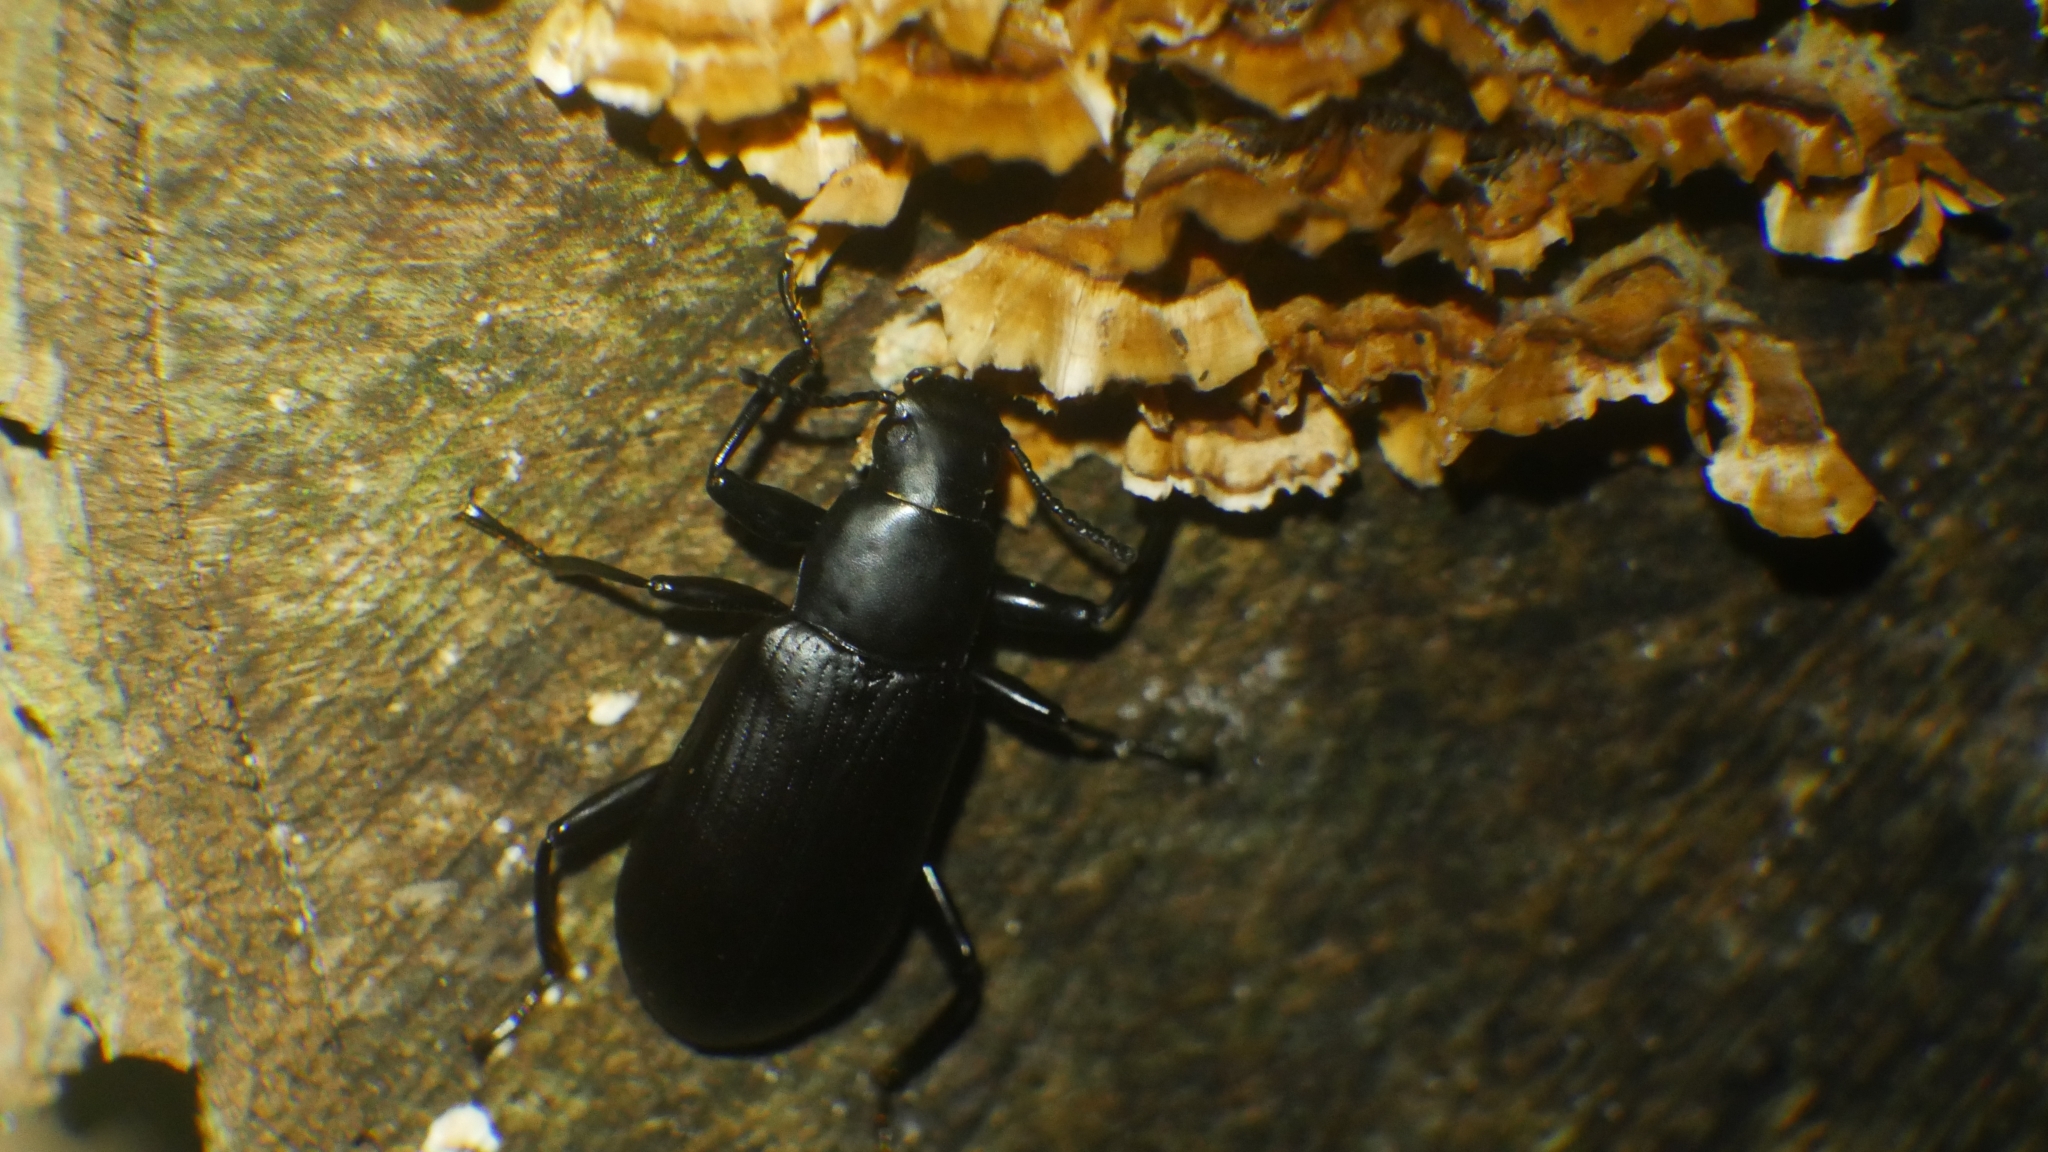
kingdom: Animalia
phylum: Arthropoda
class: Insecta
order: Coleoptera
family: Tenebrionidae
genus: Alobates
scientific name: Alobates
